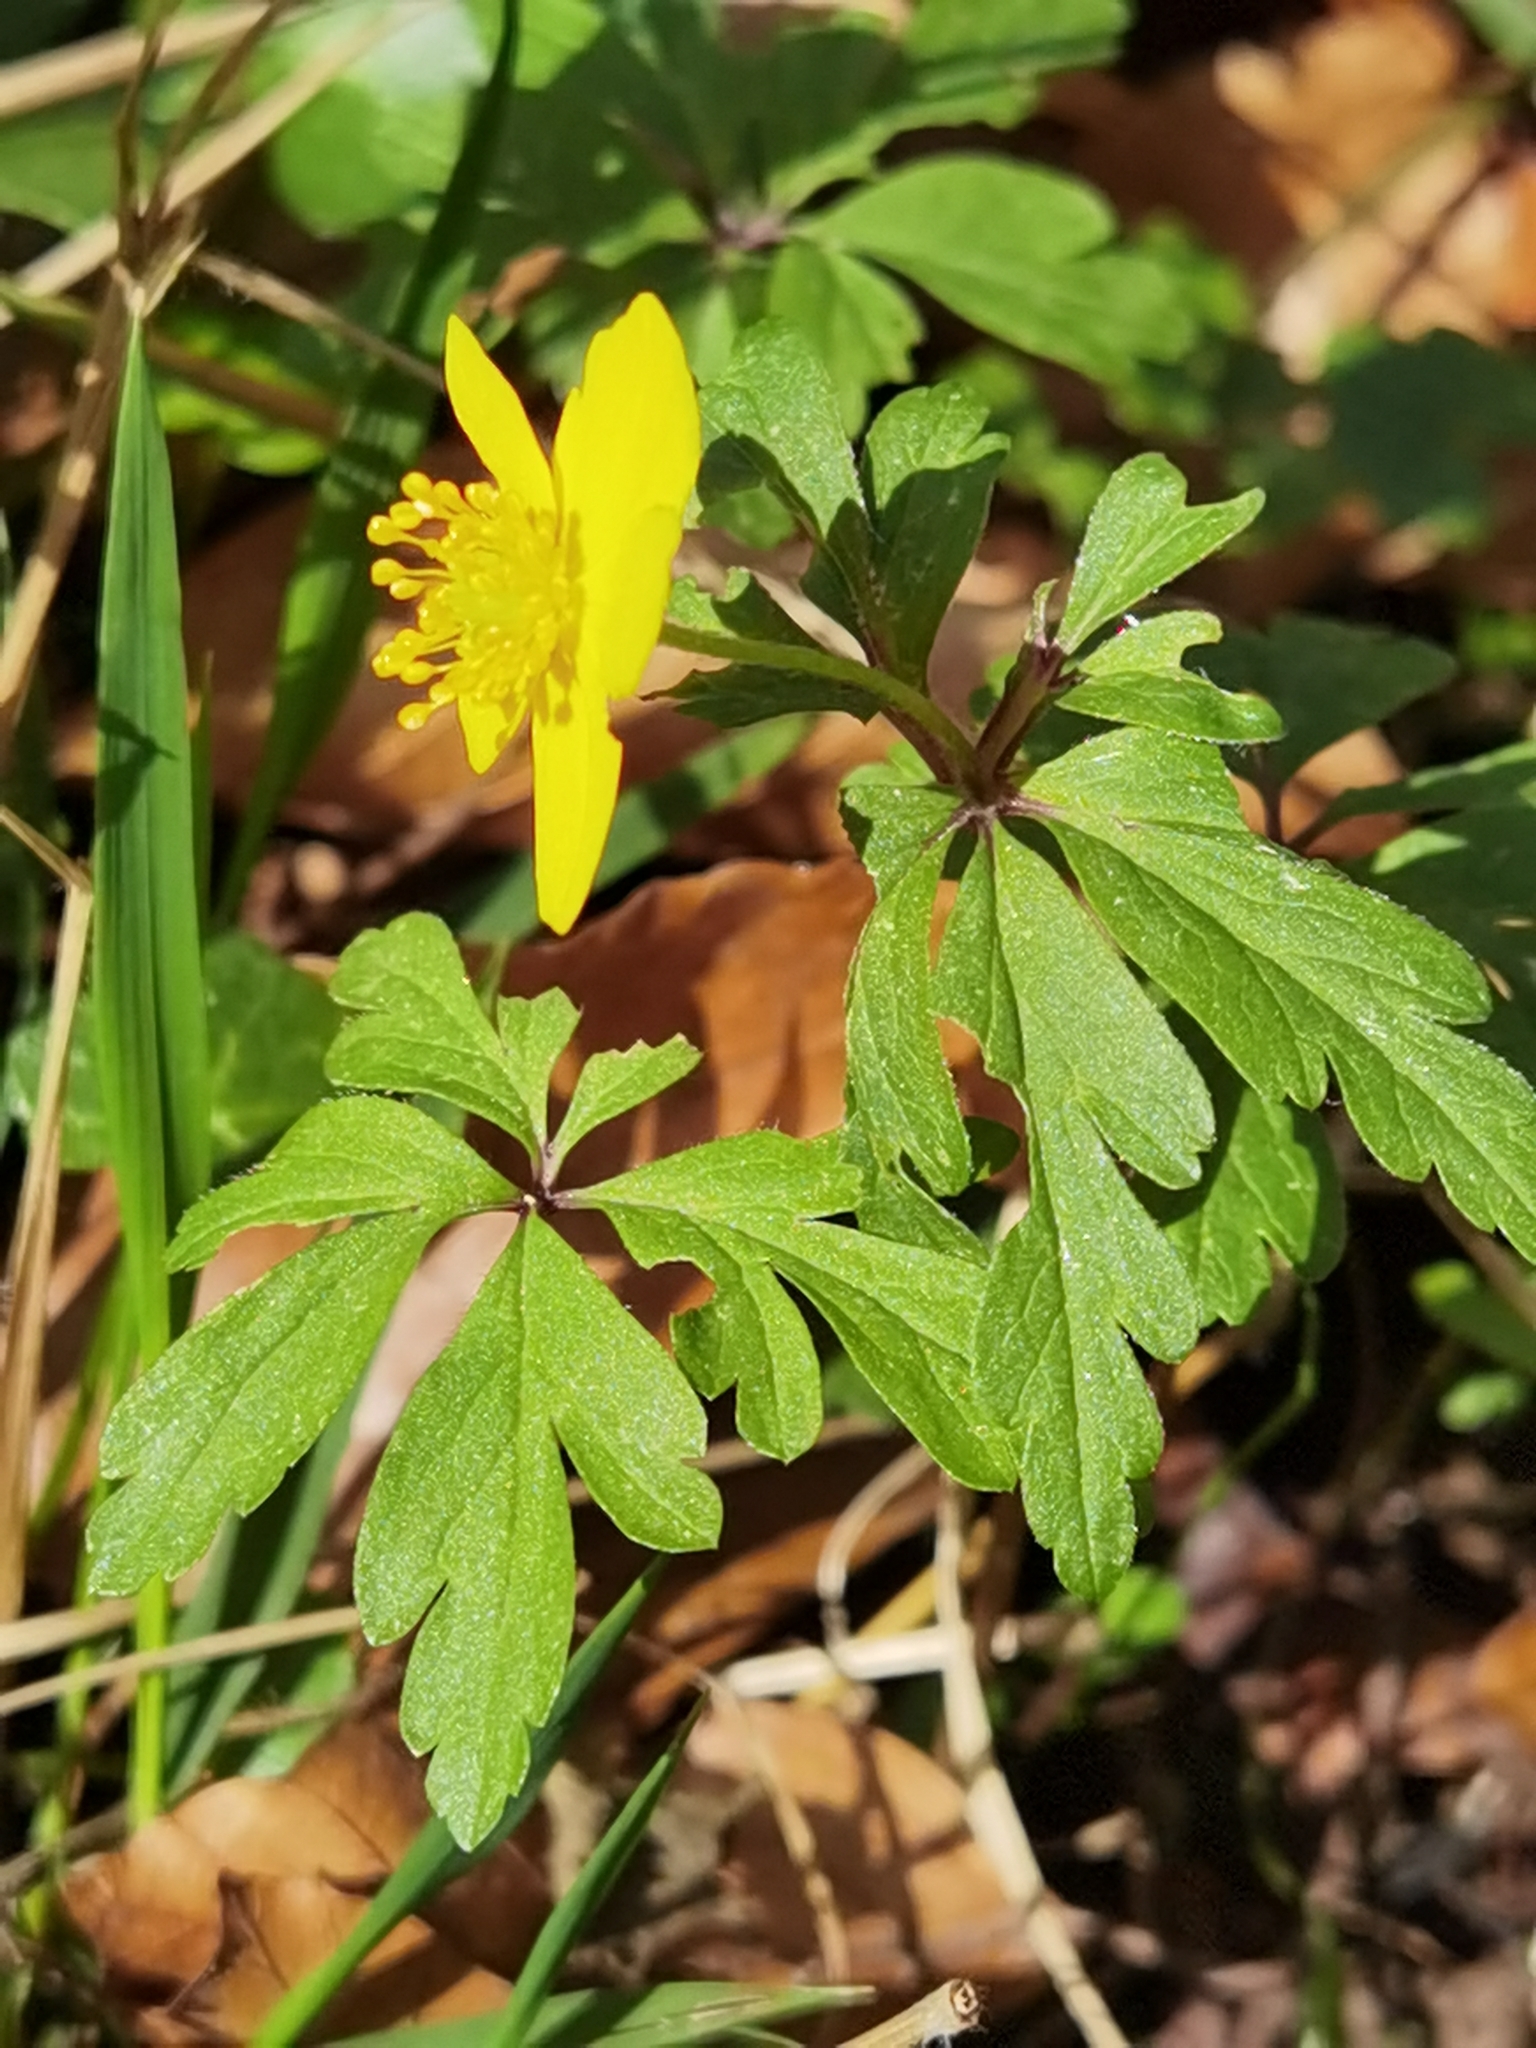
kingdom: Plantae
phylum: Tracheophyta
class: Magnoliopsida
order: Ranunculales
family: Ranunculaceae
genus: Anemone
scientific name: Anemone ranunculoides
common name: Yellow anemone
